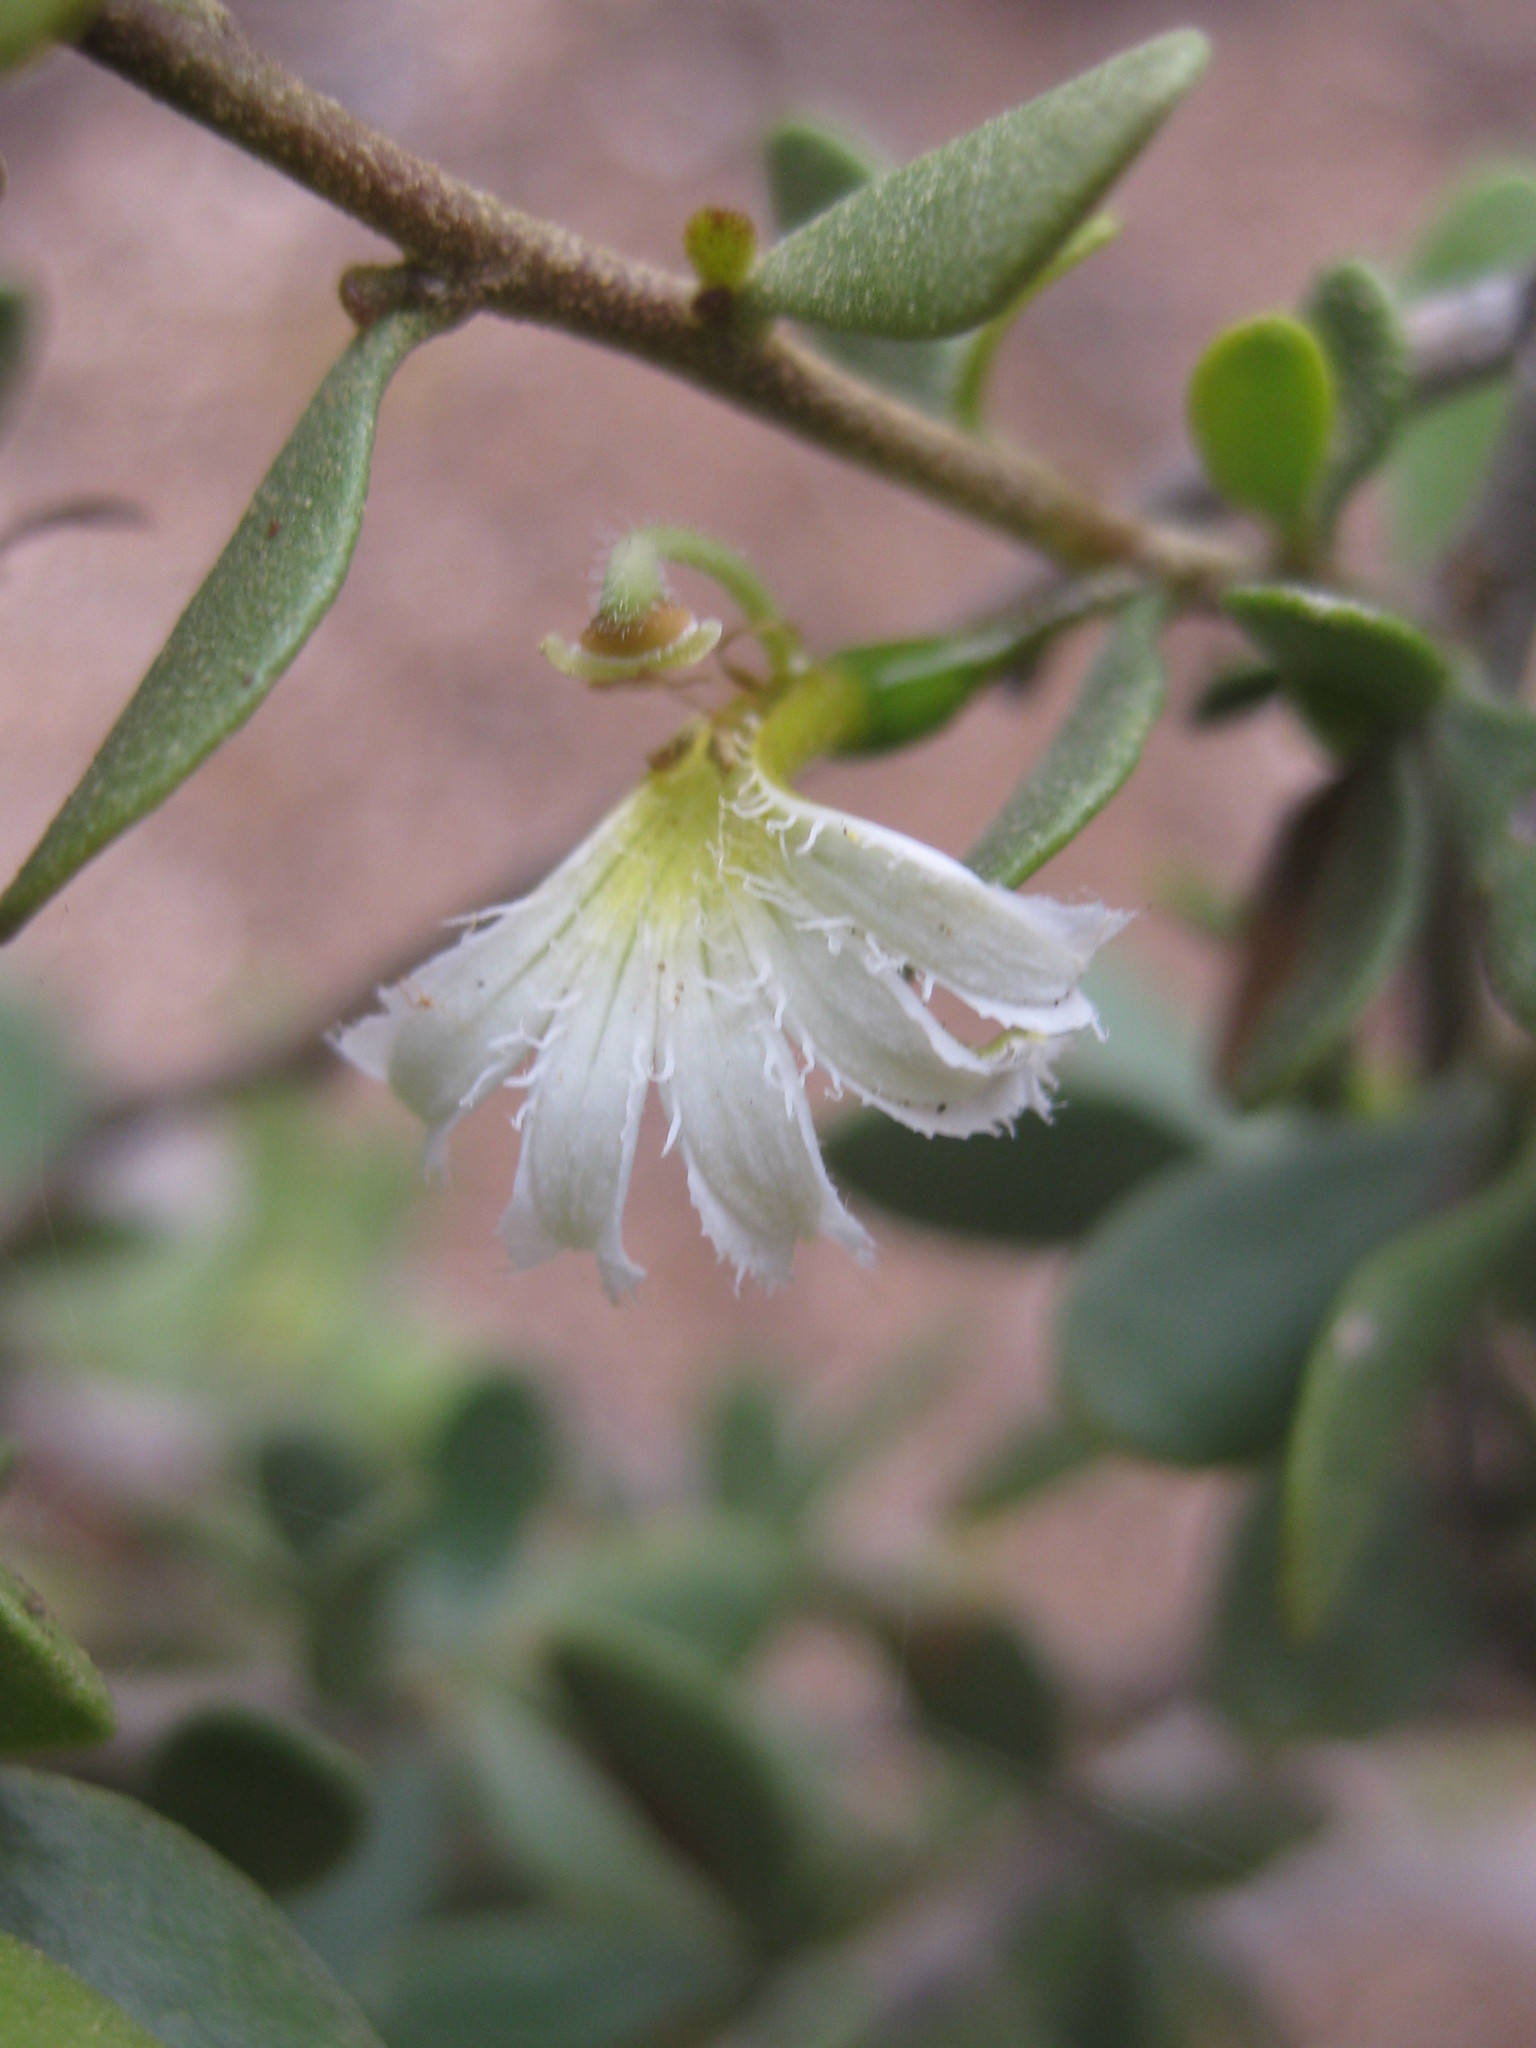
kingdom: Plantae
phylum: Tracheophyta
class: Magnoliopsida
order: Asterales
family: Goodeniaceae
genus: Scaevola
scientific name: Scaevola spinescens
